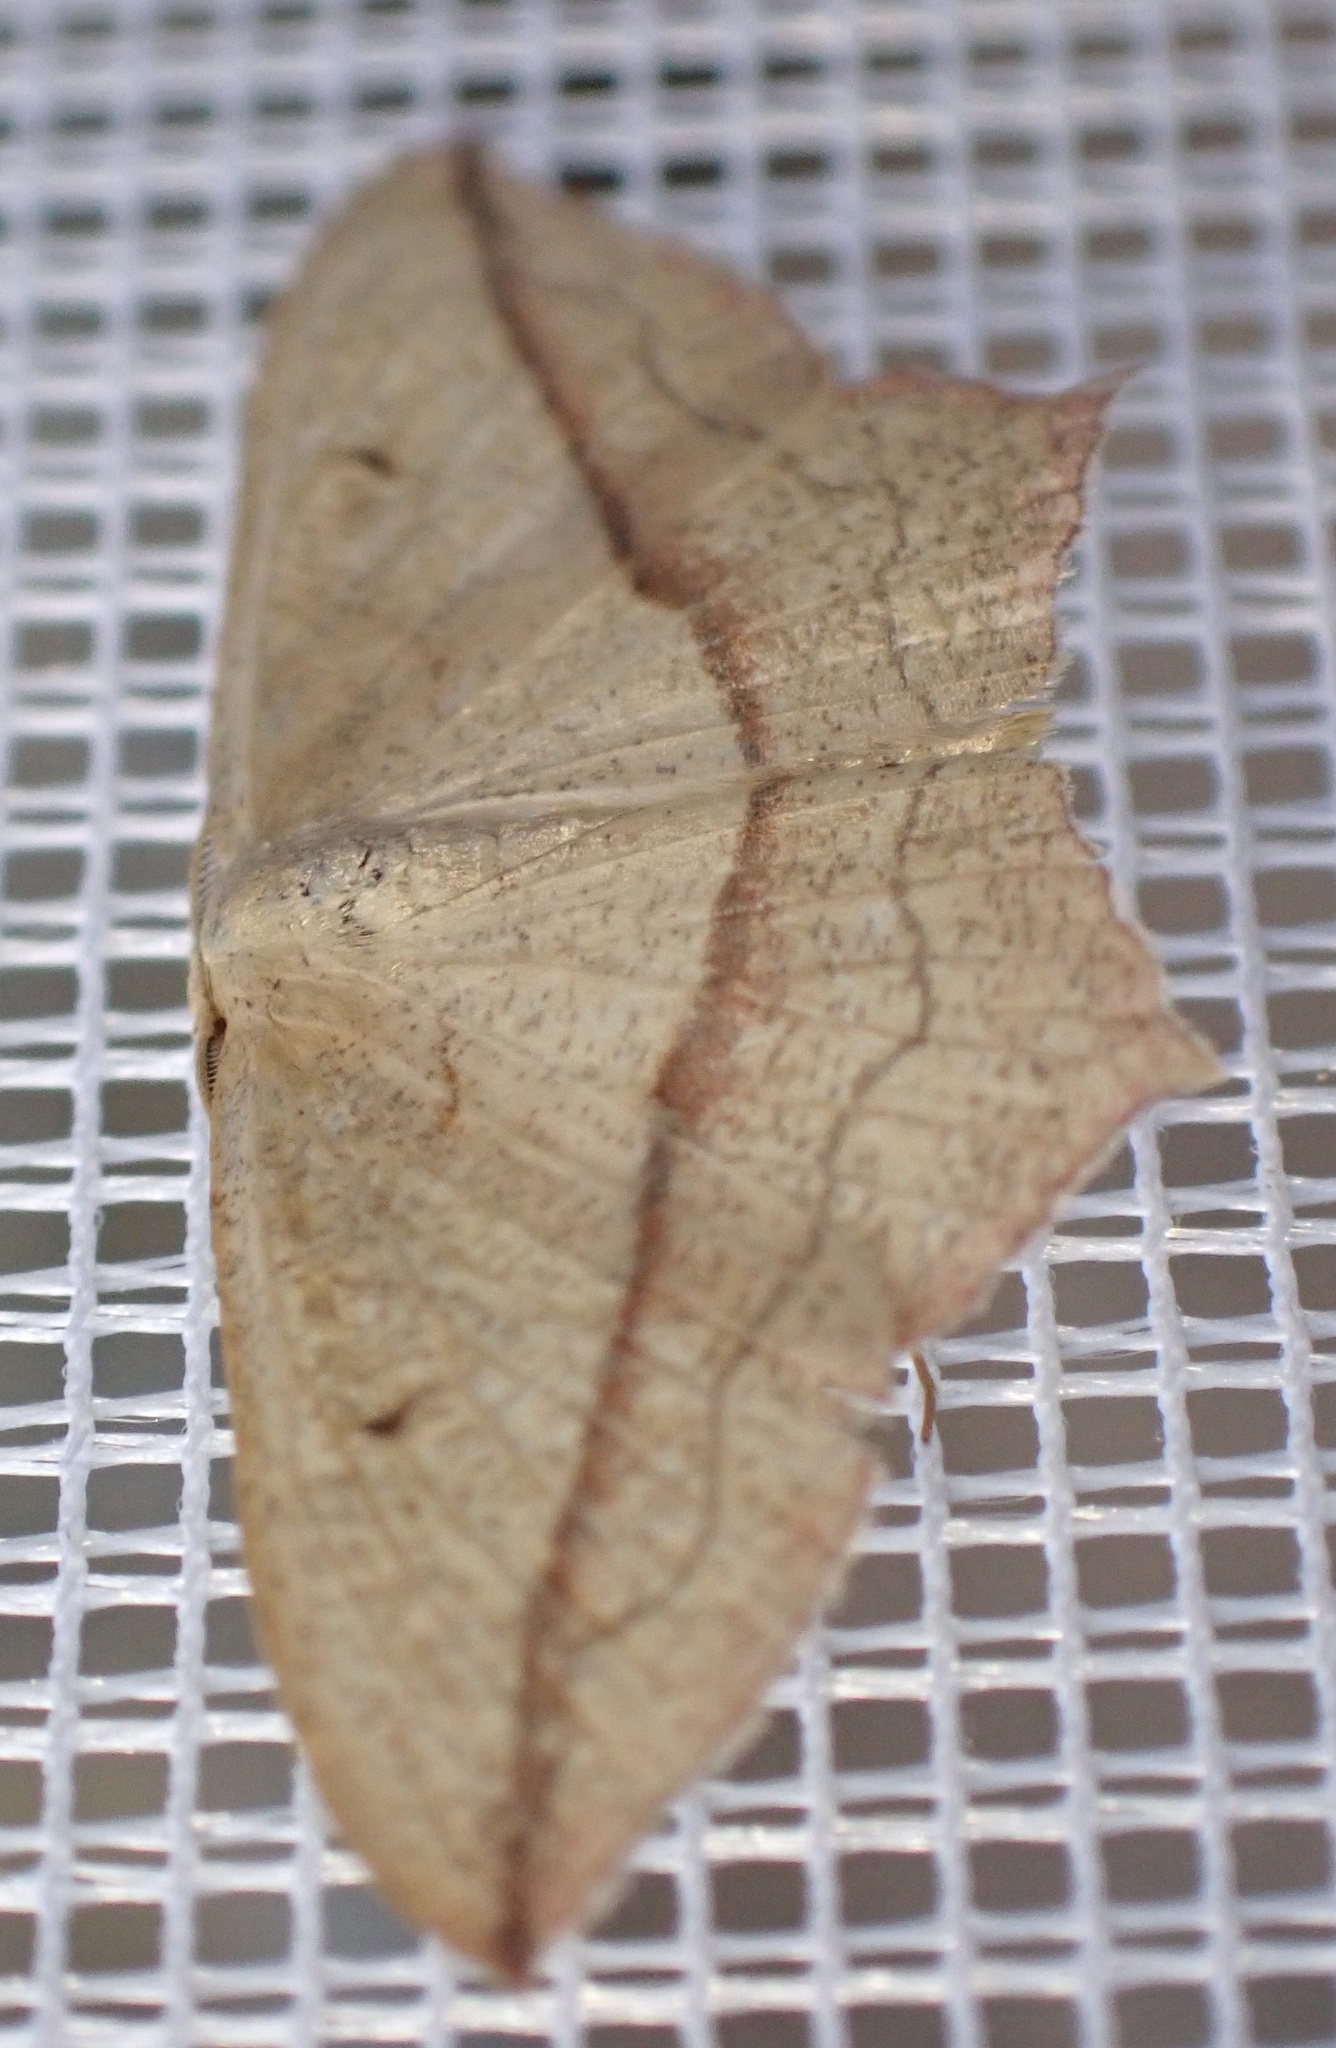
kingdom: Animalia
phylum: Arthropoda
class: Insecta
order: Lepidoptera
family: Geometridae
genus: Timandra
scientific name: Timandra comae
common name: Blood-vein
